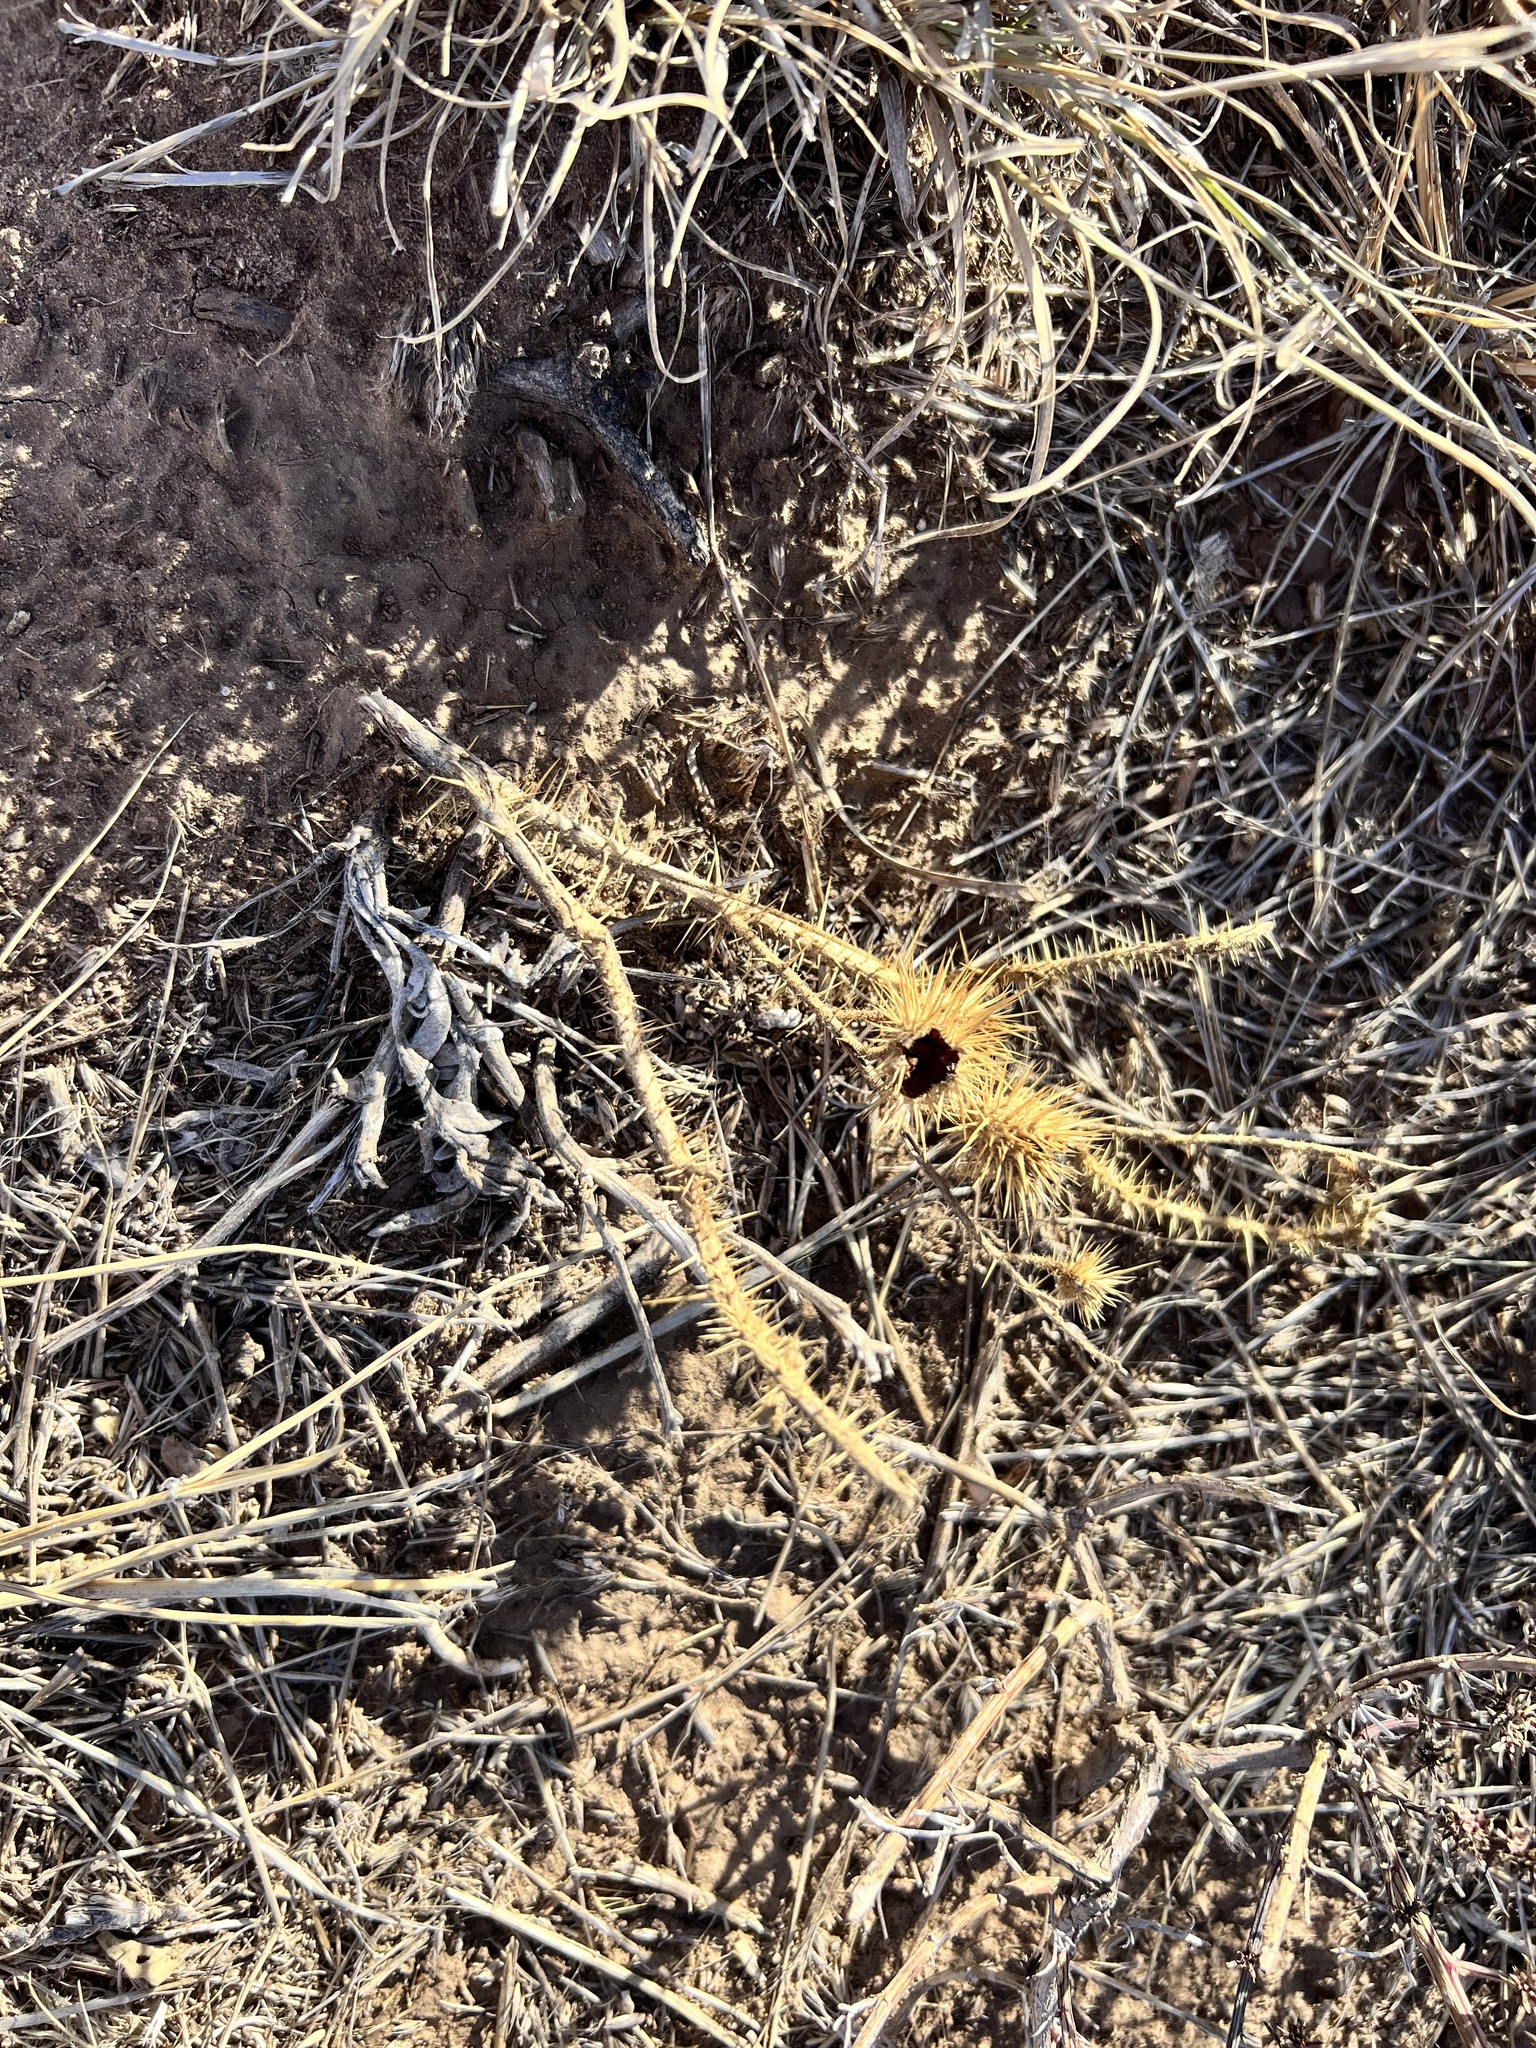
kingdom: Plantae
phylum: Tracheophyta
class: Magnoliopsida
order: Solanales
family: Solanaceae
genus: Solanum
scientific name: Solanum angustifolium
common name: Buffalobur nightshade
